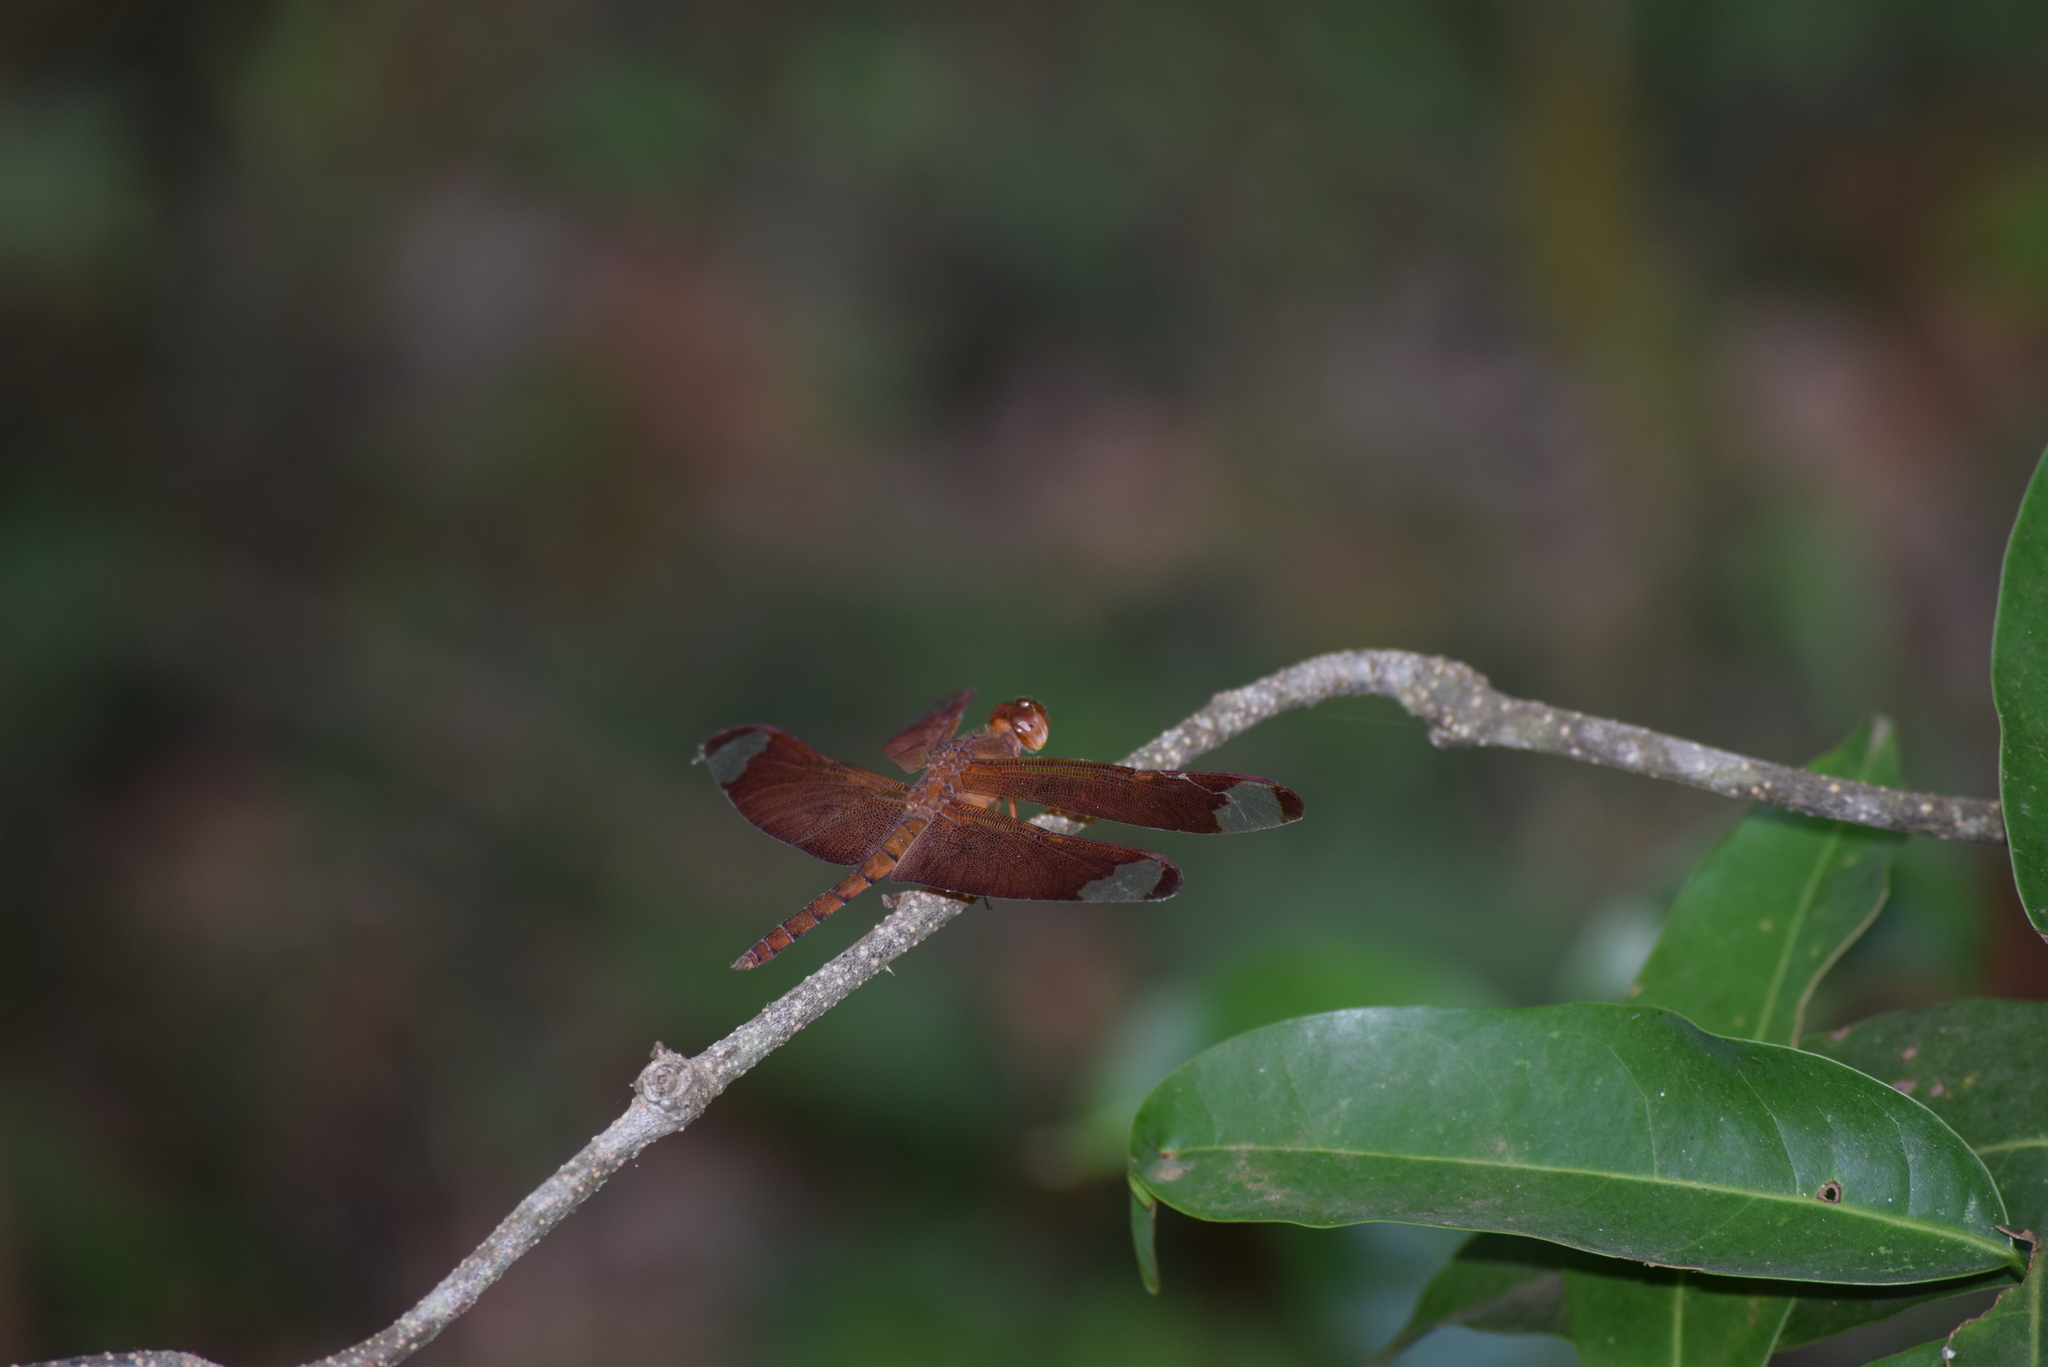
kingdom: Animalia
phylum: Arthropoda
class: Insecta
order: Odonata
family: Libellulidae
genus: Neurothemis
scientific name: Neurothemis fulvia
